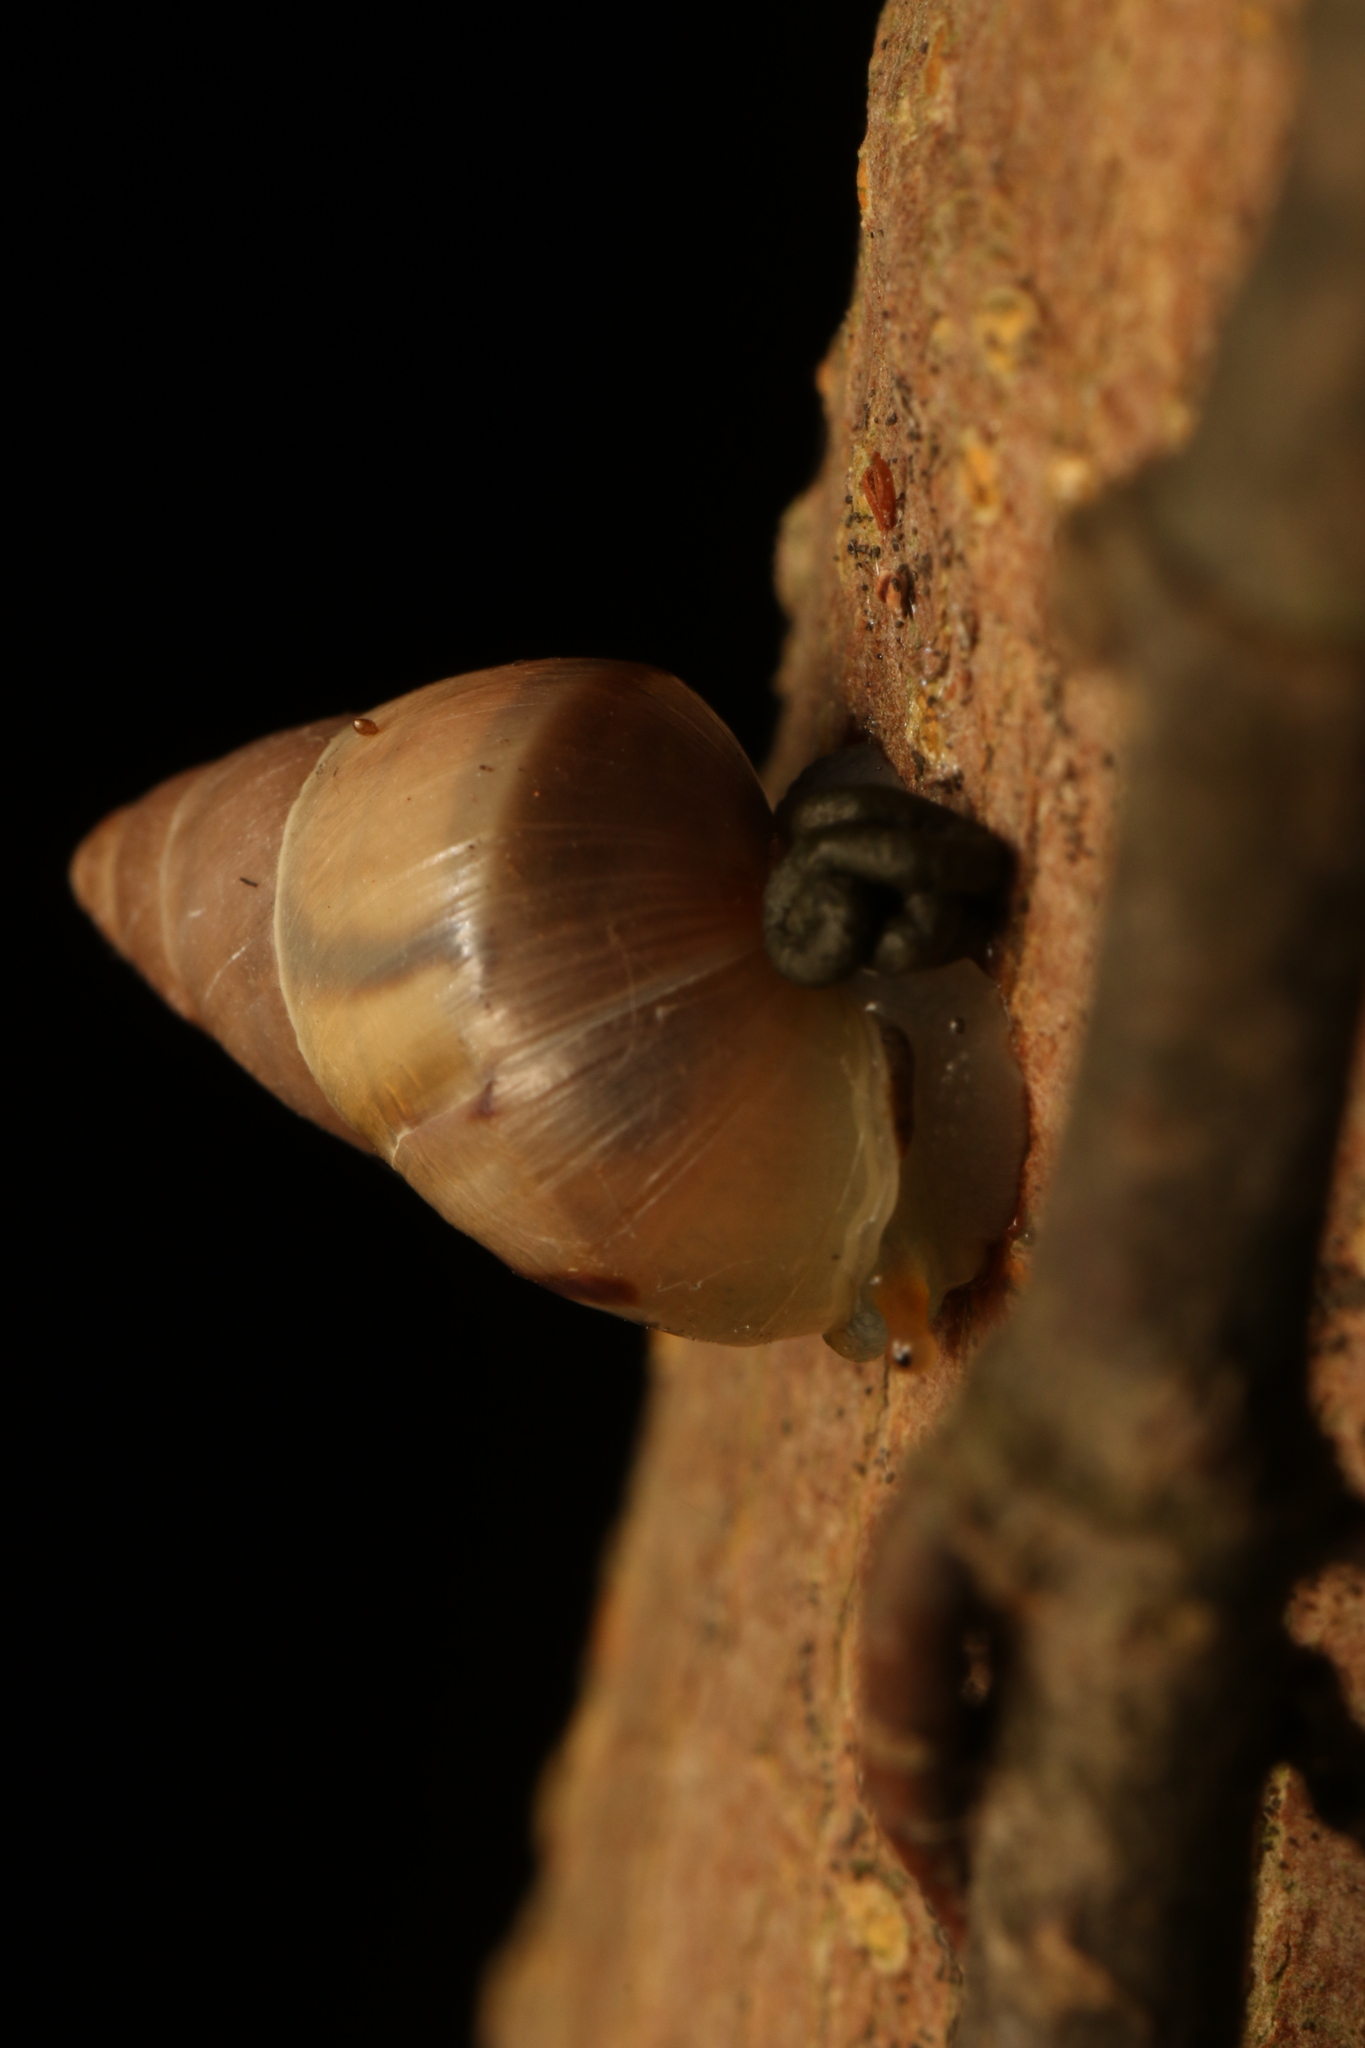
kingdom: Animalia
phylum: Mollusca
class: Gastropoda
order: Stylommatophora
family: Bulimulidae
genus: Drymaeus
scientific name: Drymaeus semistriatus
